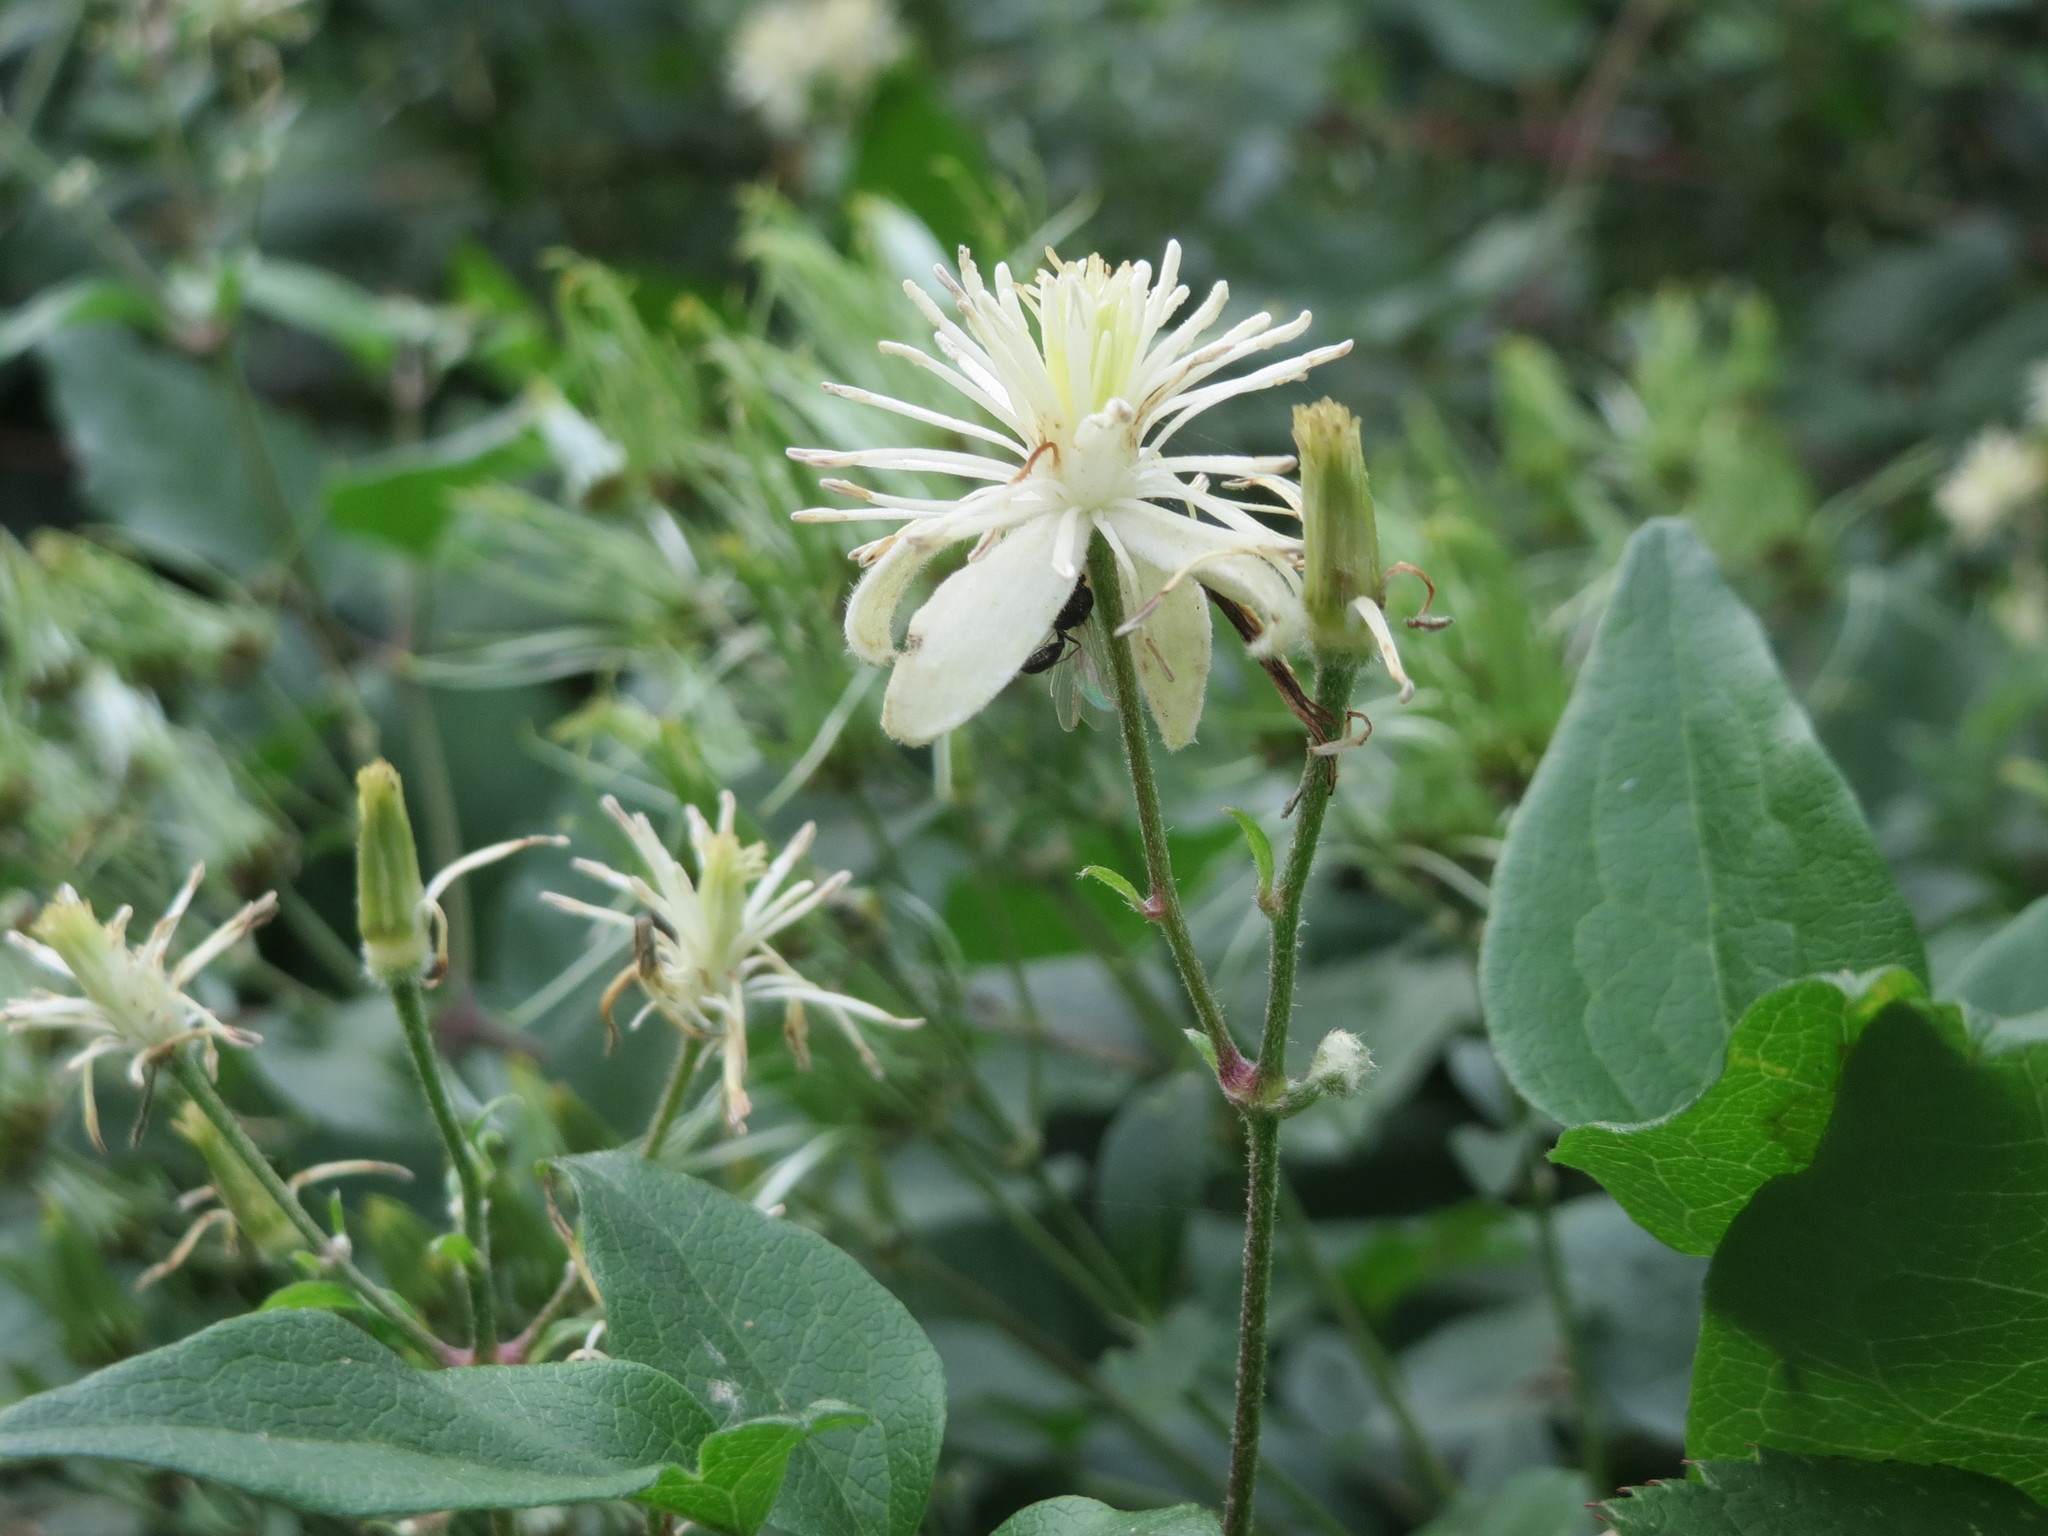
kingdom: Plantae
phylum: Tracheophyta
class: Magnoliopsida
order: Ranunculales
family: Ranunculaceae
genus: Clematis
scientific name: Clematis vitalba
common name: Evergreen clematis
